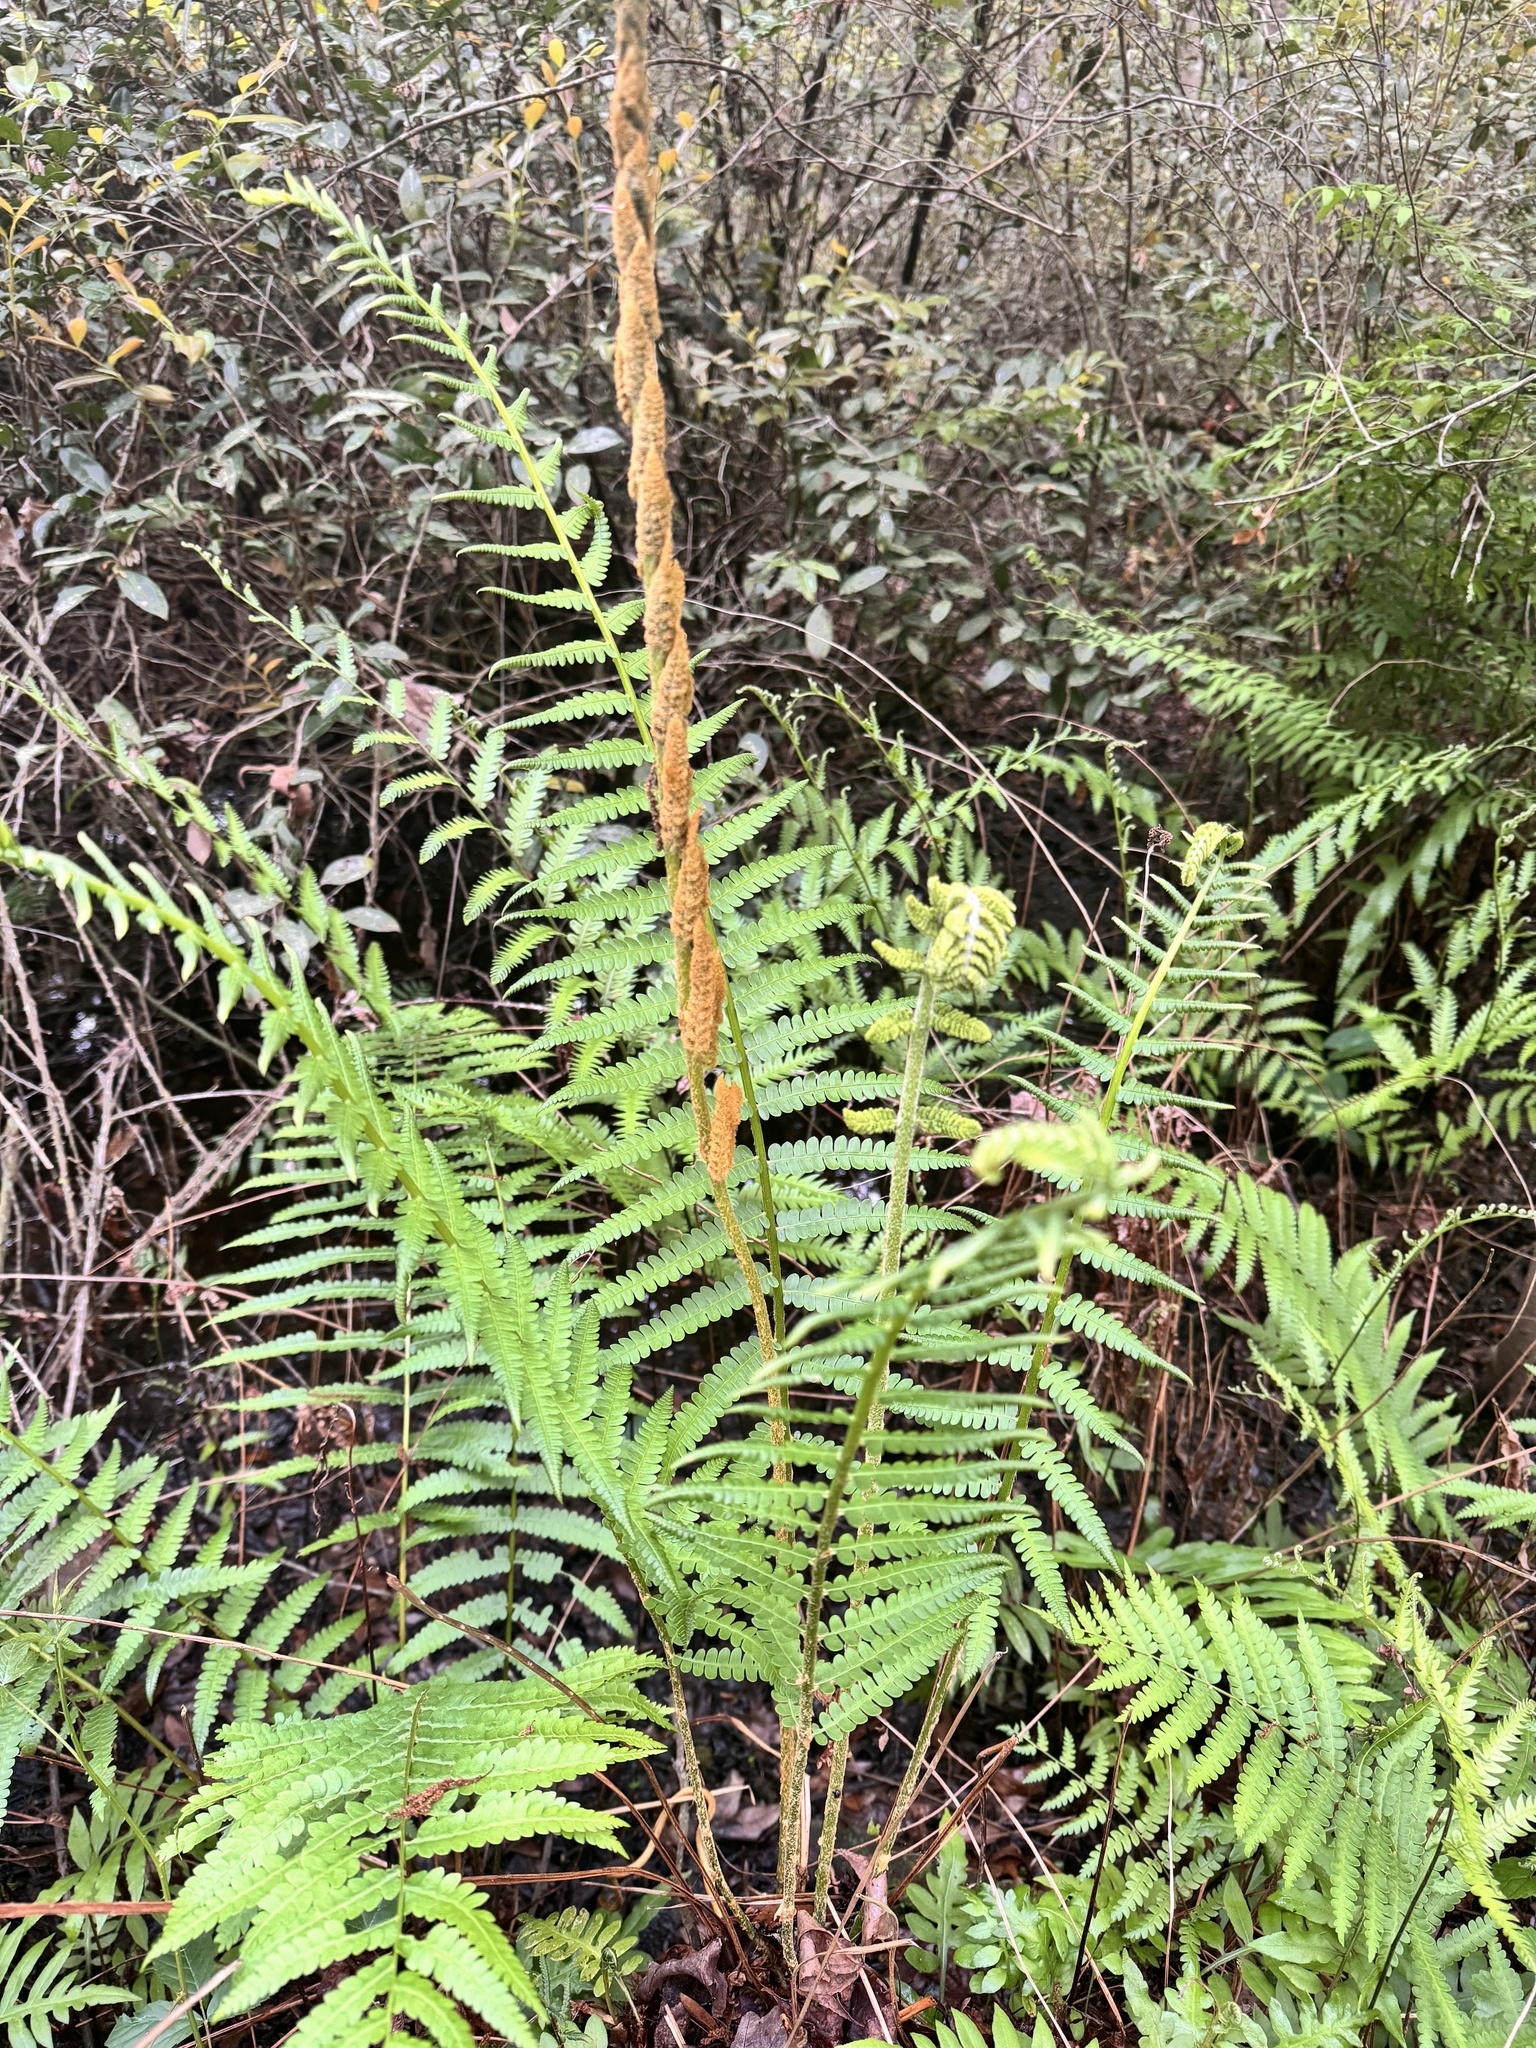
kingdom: Plantae
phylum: Tracheophyta
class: Polypodiopsida
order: Osmundales
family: Osmundaceae
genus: Osmundastrum
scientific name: Osmundastrum cinnamomeum
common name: Cinnamon fern
